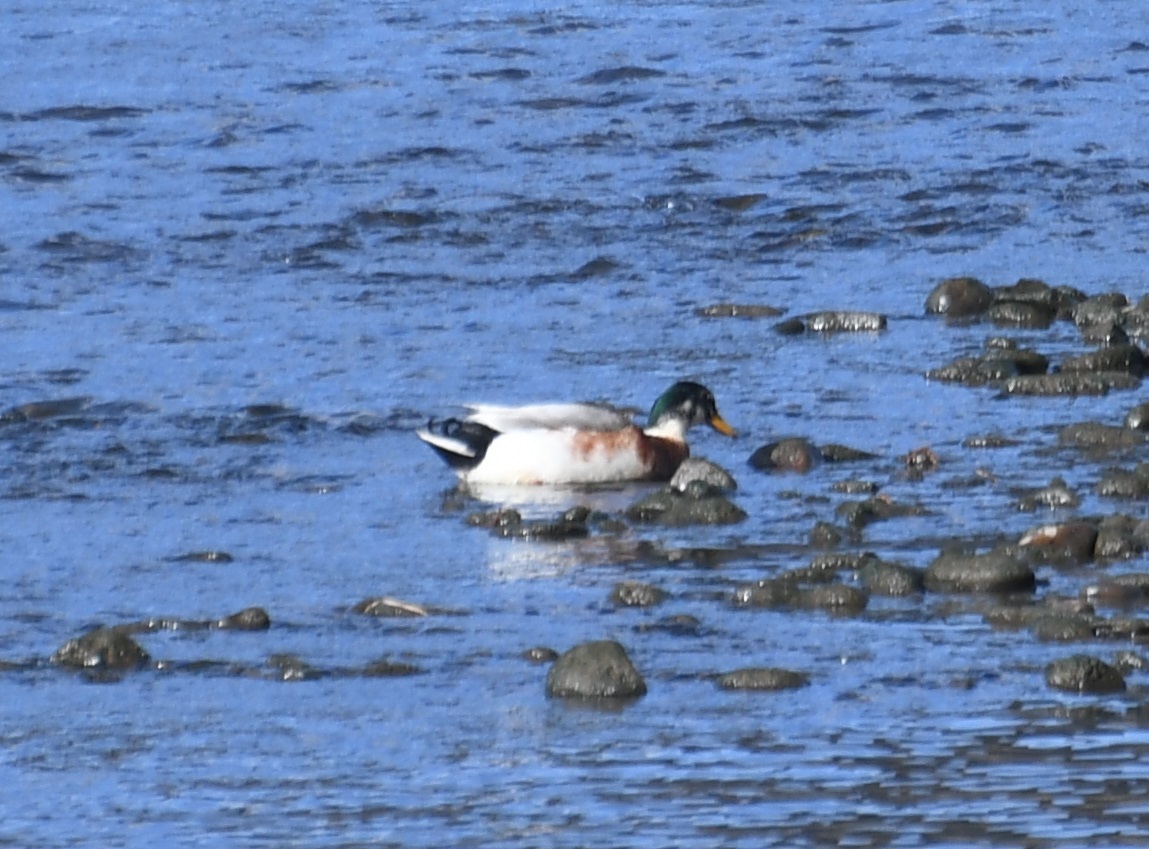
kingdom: Animalia
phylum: Chordata
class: Aves
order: Anseriformes
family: Anatidae
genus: Anas
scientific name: Anas platyrhynchos
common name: Mallard
